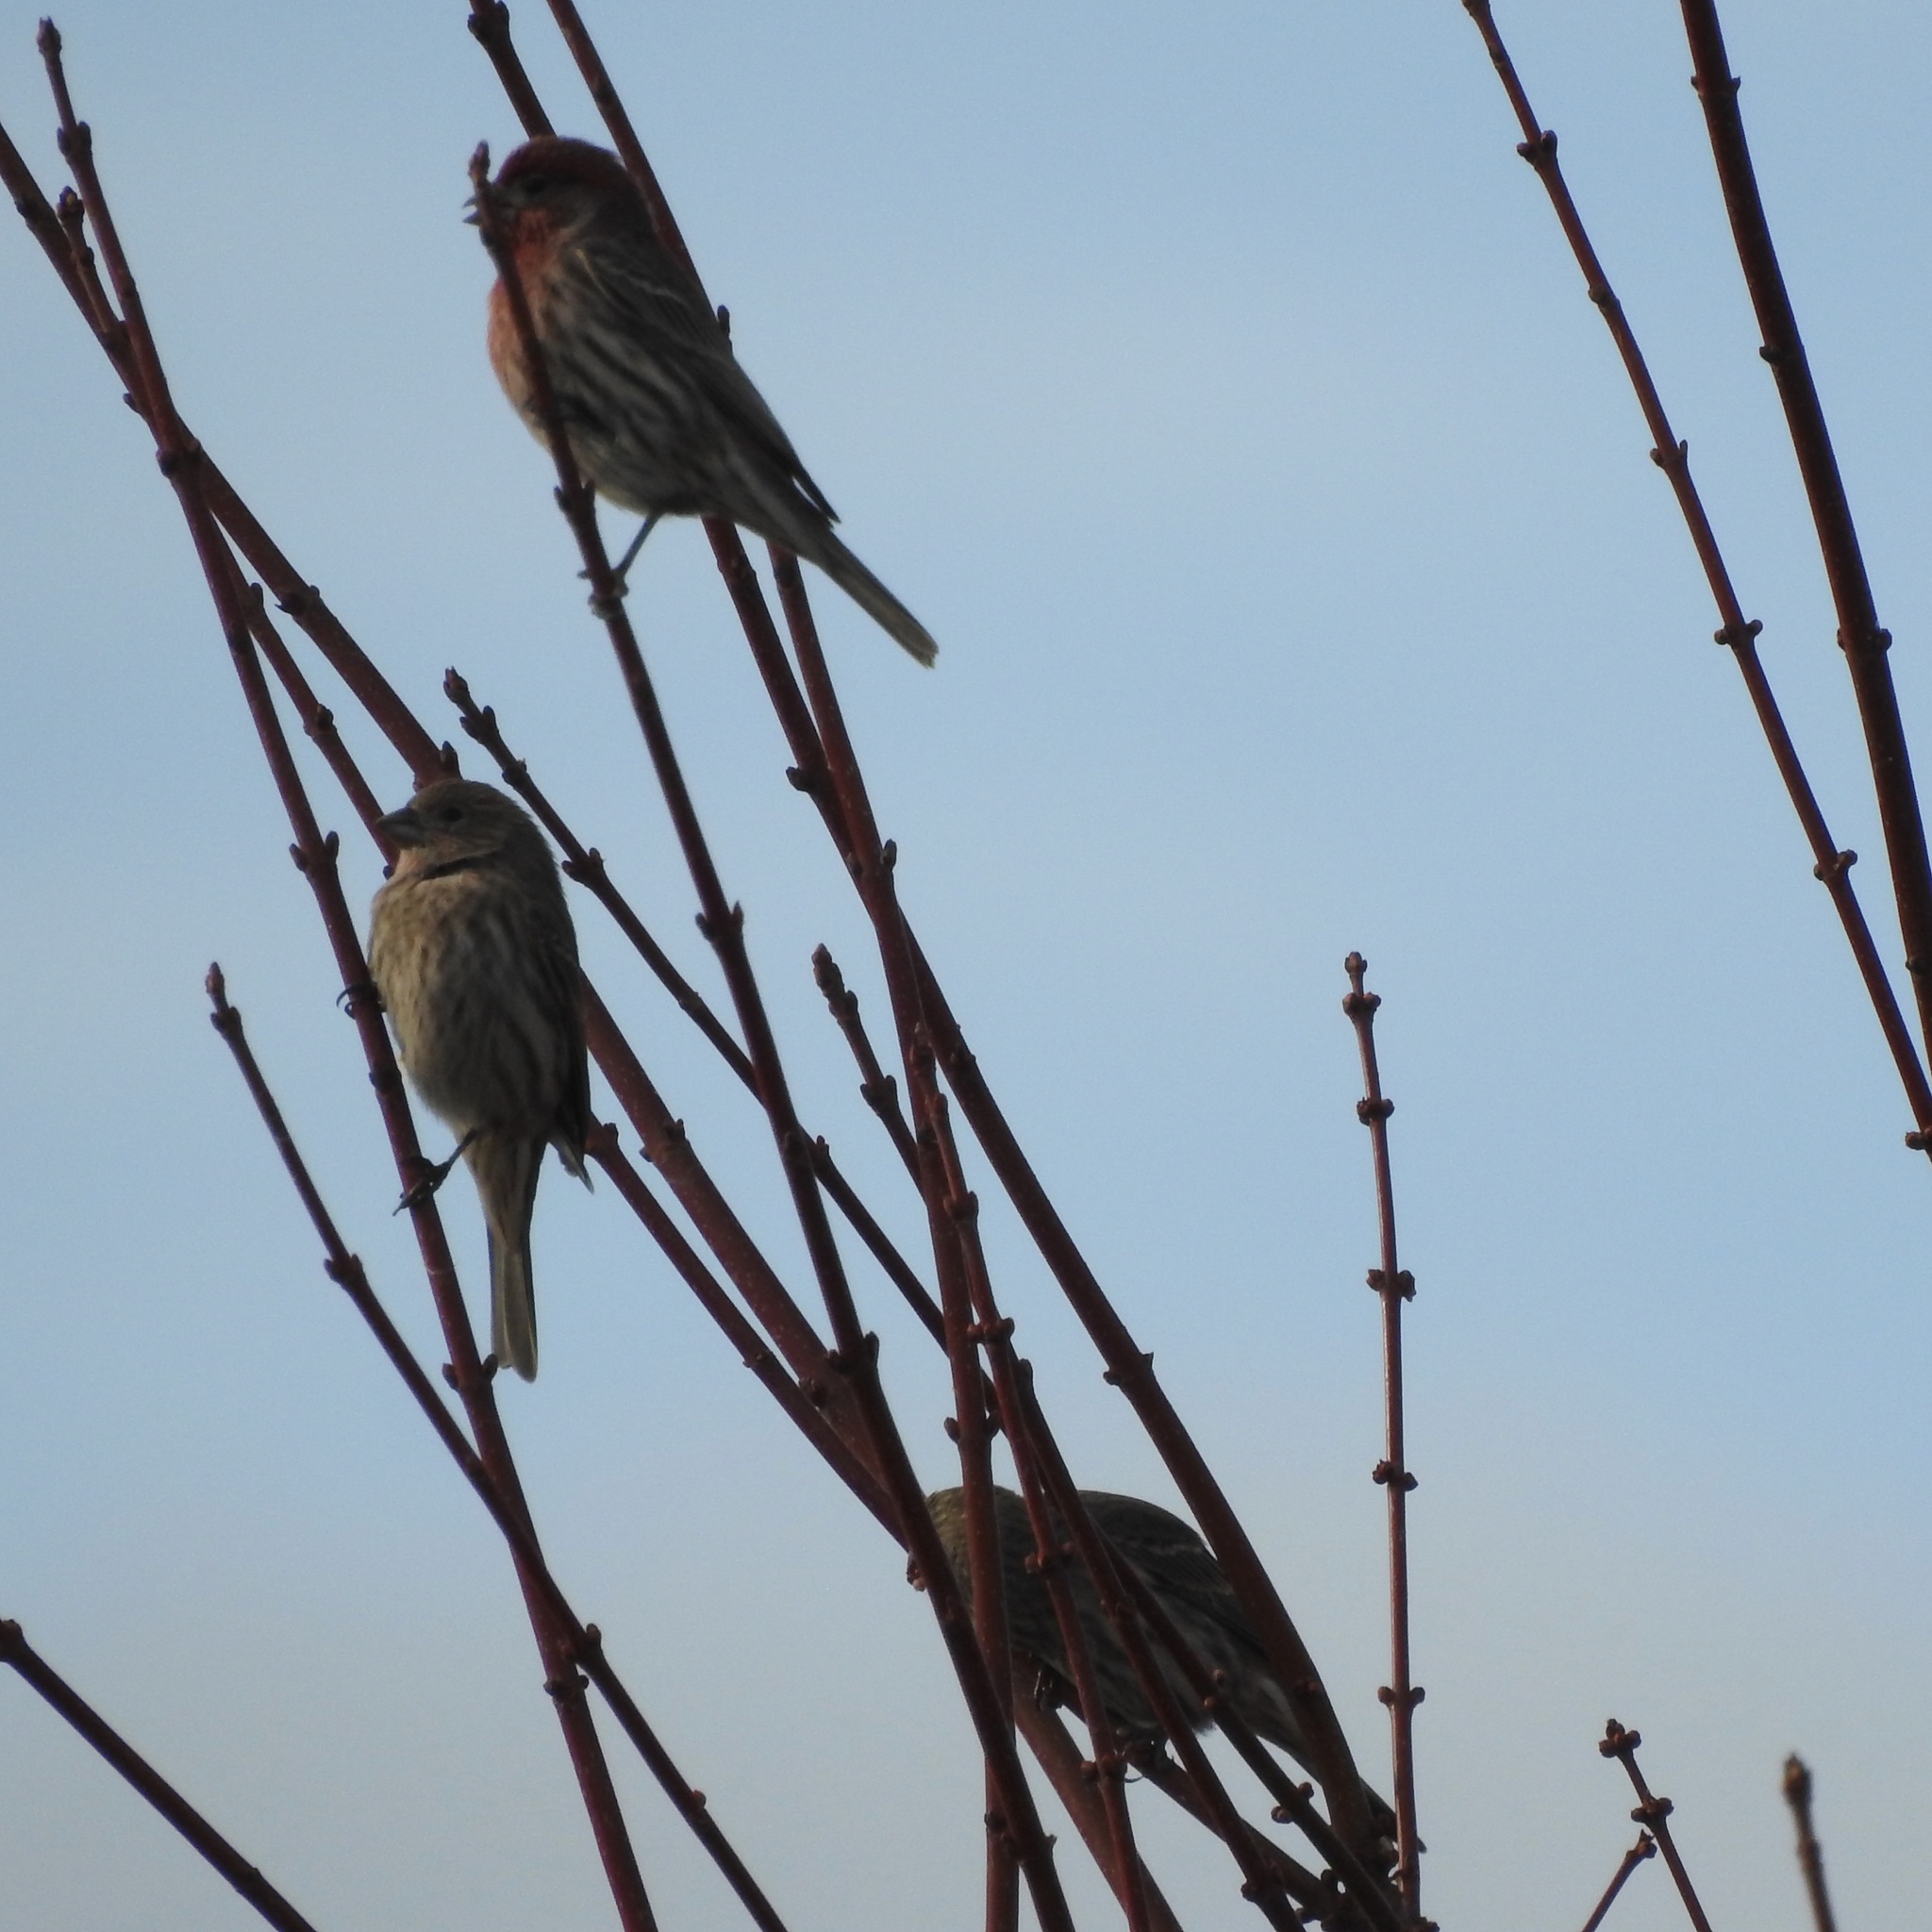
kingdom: Animalia
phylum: Chordata
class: Aves
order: Passeriformes
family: Fringillidae
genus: Haemorhous
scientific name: Haemorhous mexicanus
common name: House finch
